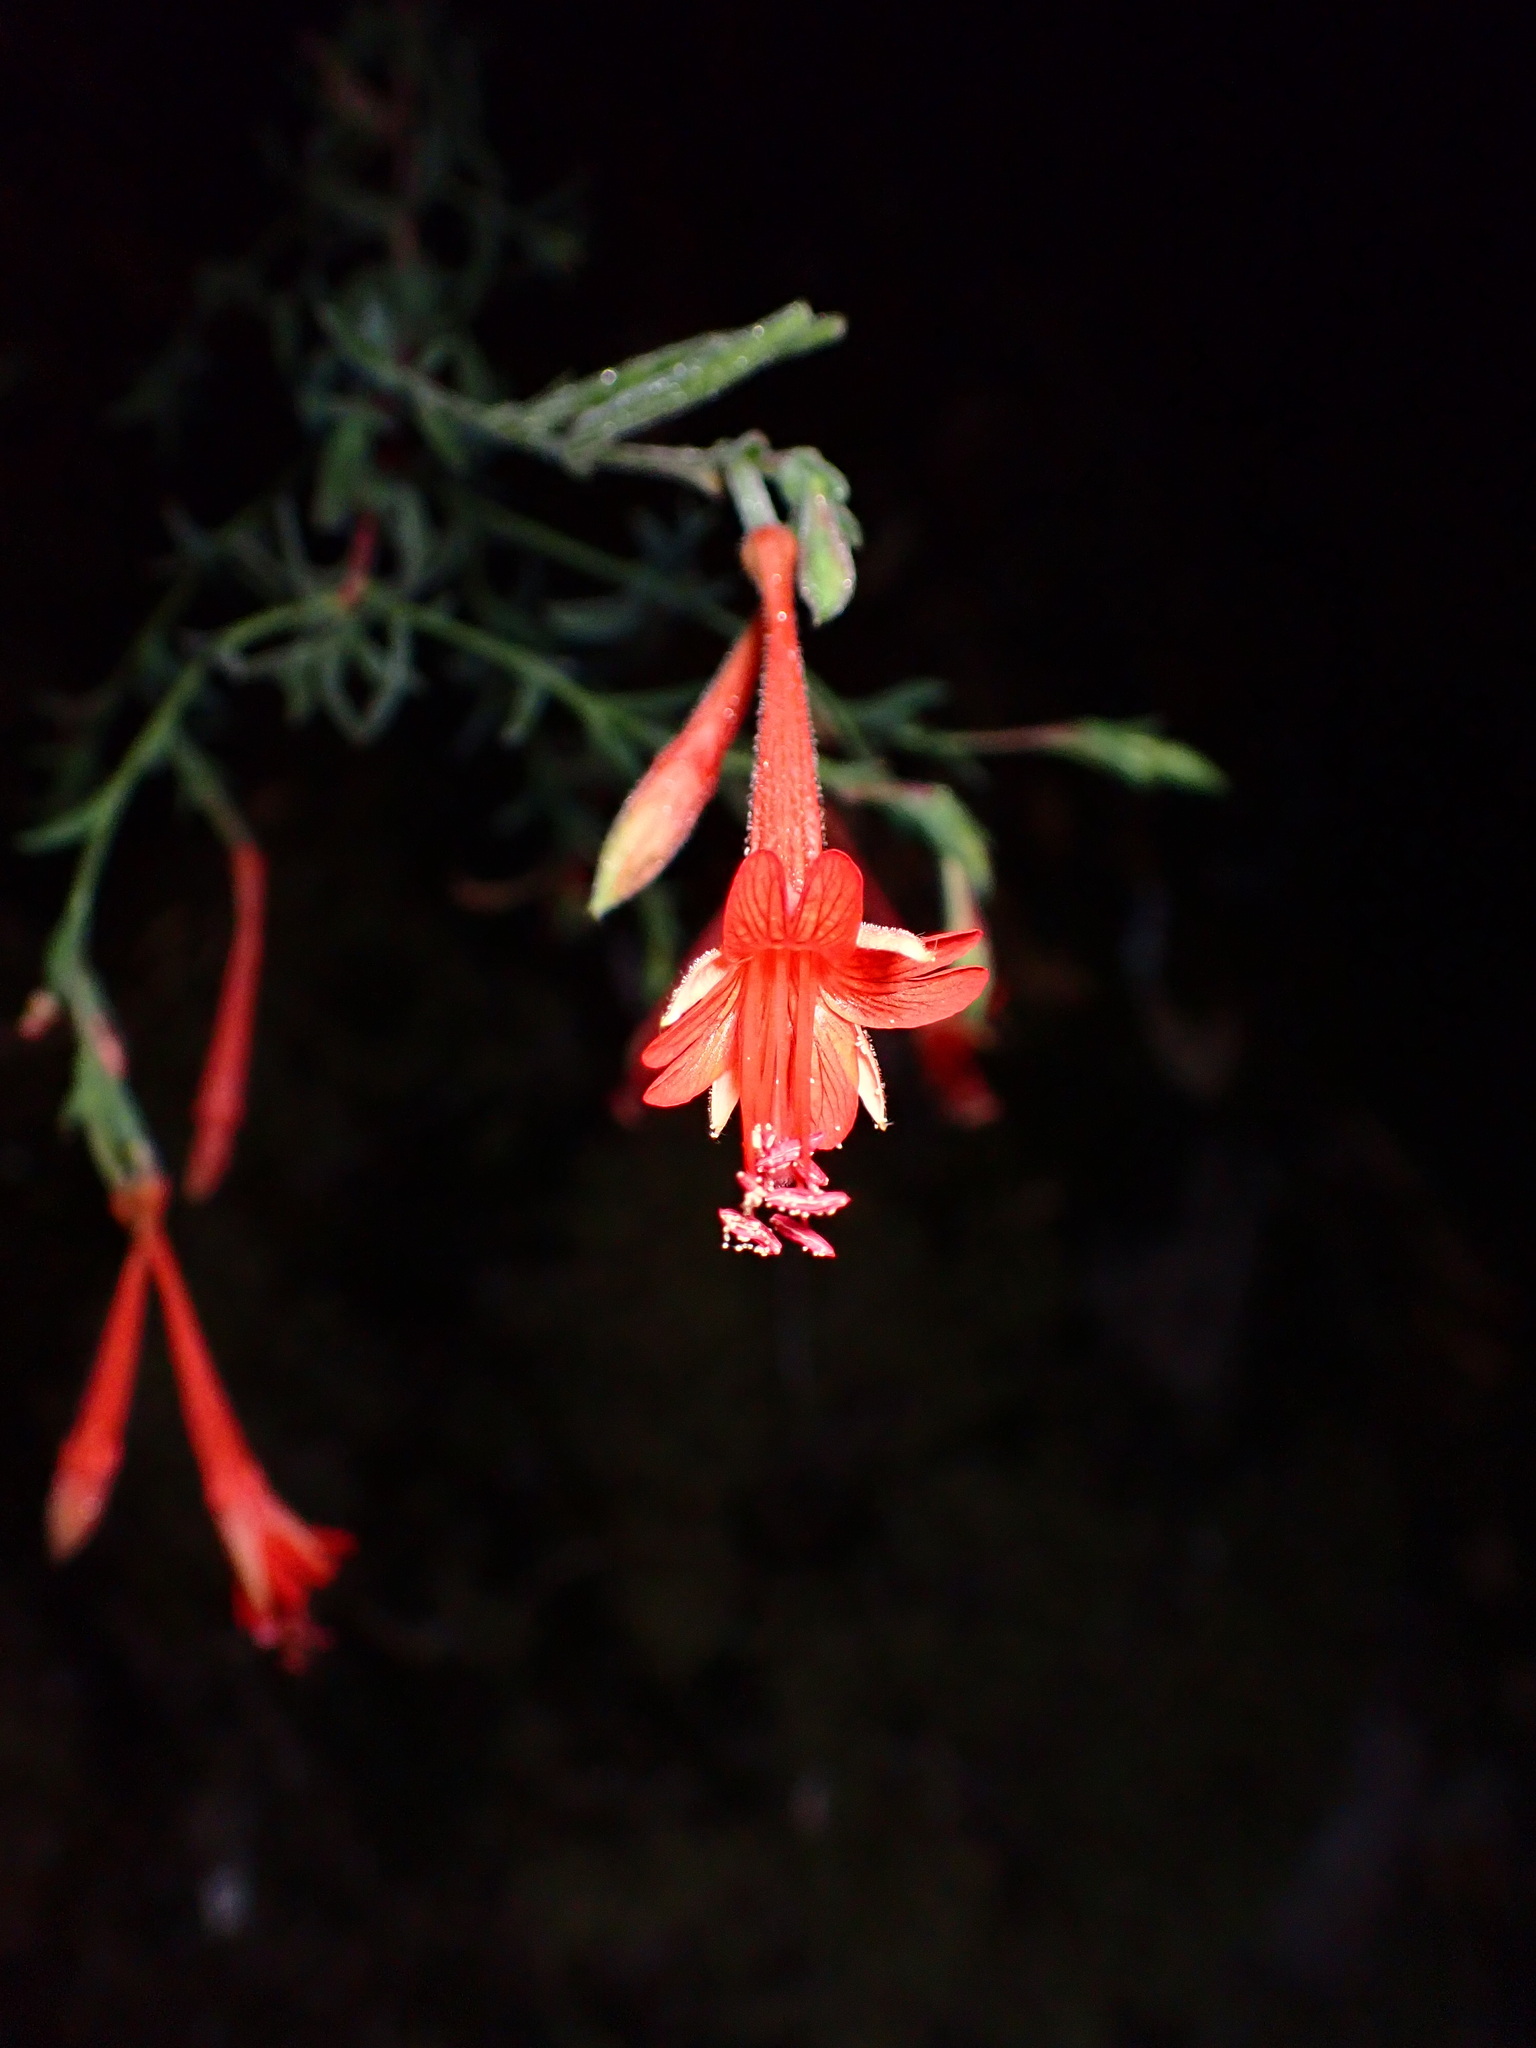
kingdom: Plantae
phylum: Tracheophyta
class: Magnoliopsida
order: Myrtales
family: Onagraceae
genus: Epilobium
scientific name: Epilobium canum
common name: California-fuchsia
